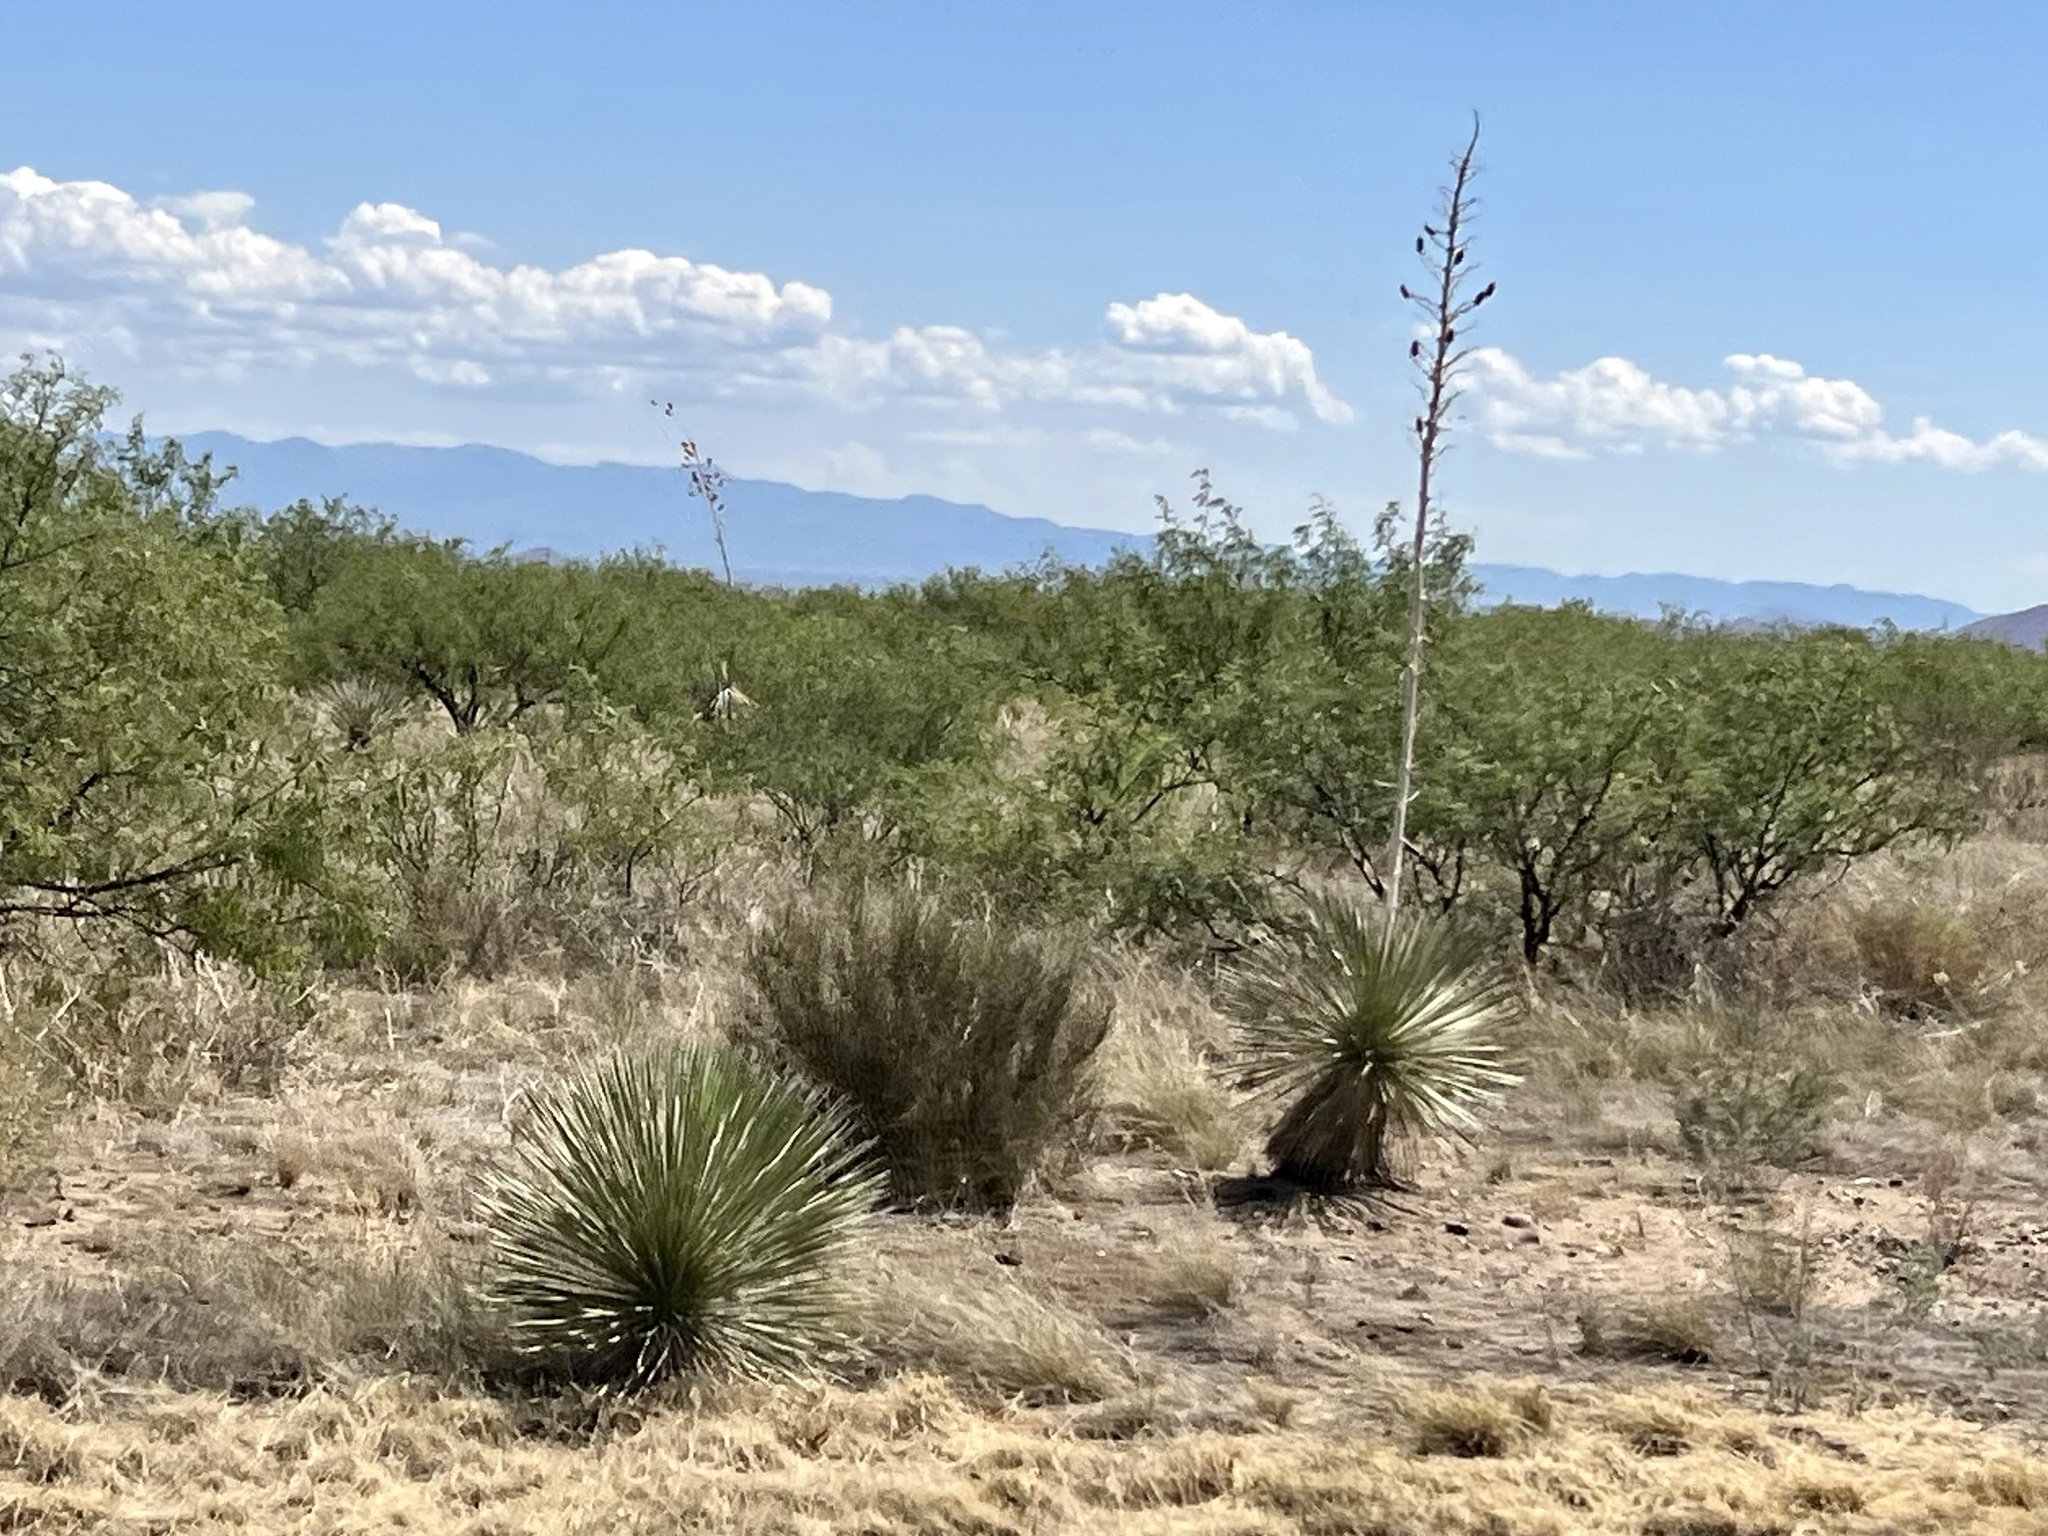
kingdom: Plantae
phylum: Tracheophyta
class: Liliopsida
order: Asparagales
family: Asparagaceae
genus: Yucca
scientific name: Yucca elata
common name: Palmella
